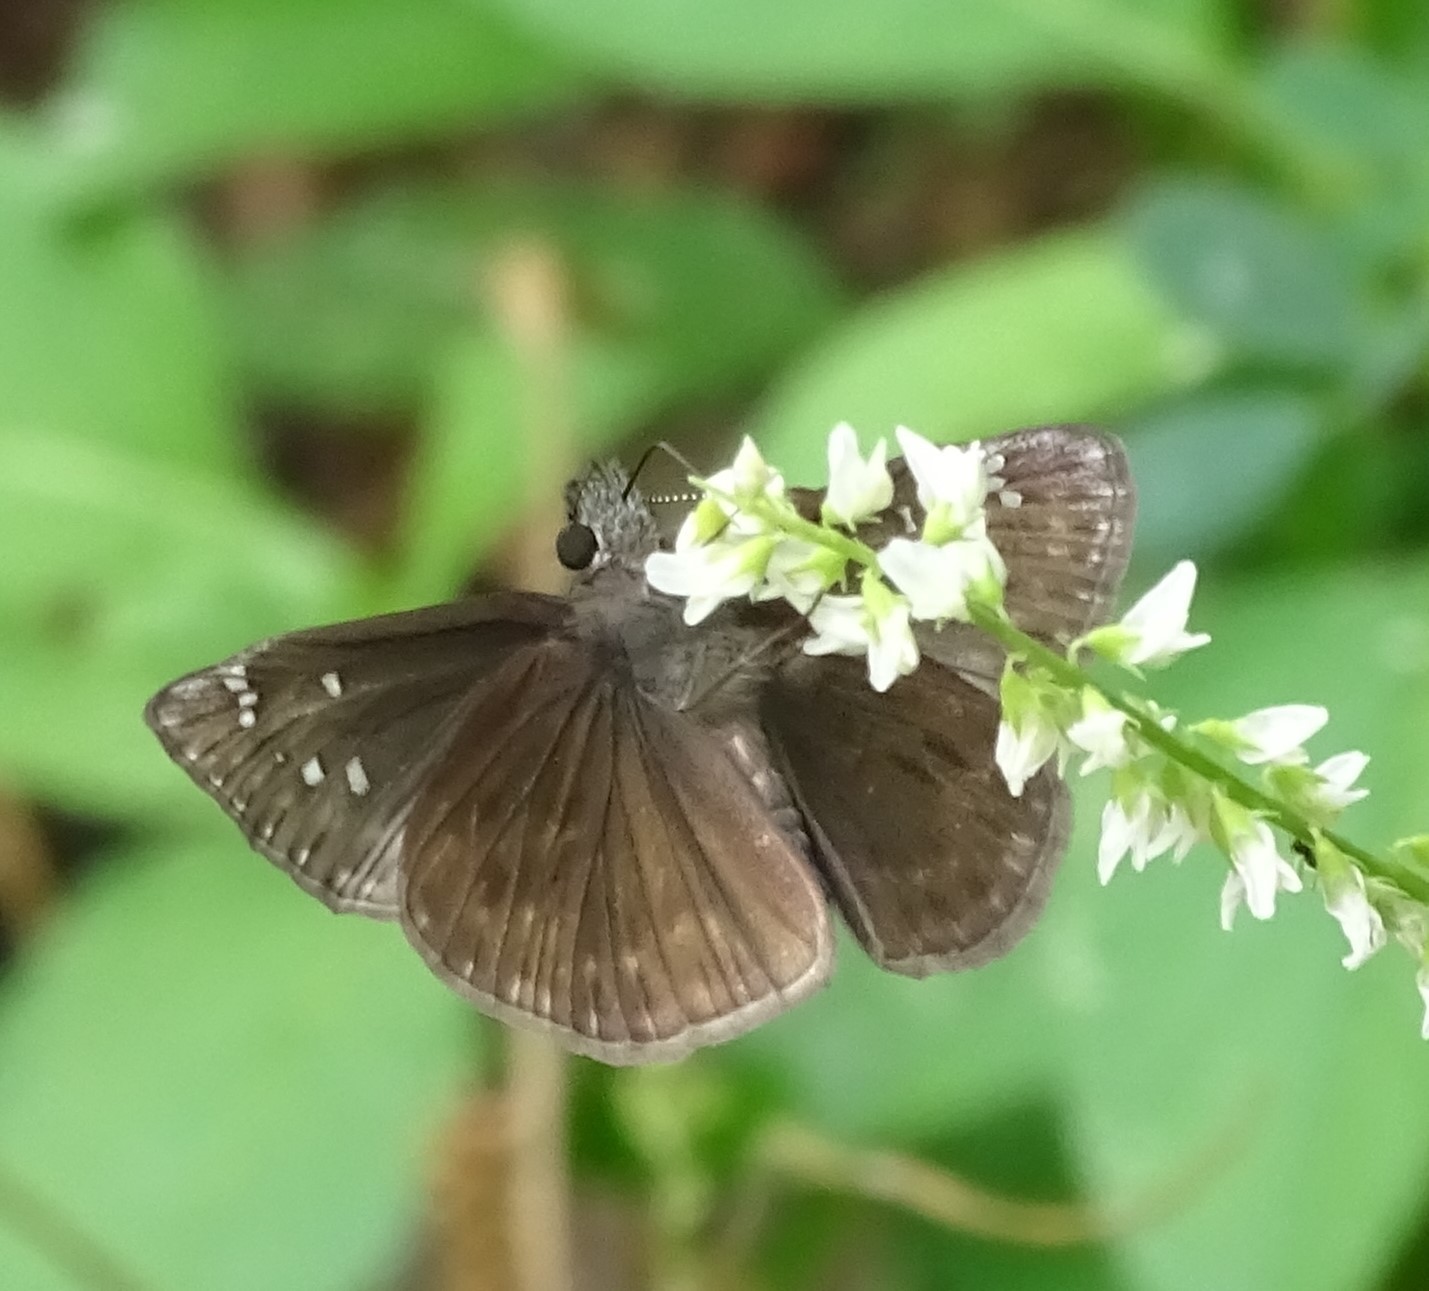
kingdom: Animalia
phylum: Arthropoda
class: Insecta
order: Lepidoptera
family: Hesperiidae
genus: Erynnis
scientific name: Erynnis horatius
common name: Horace's duskywing
